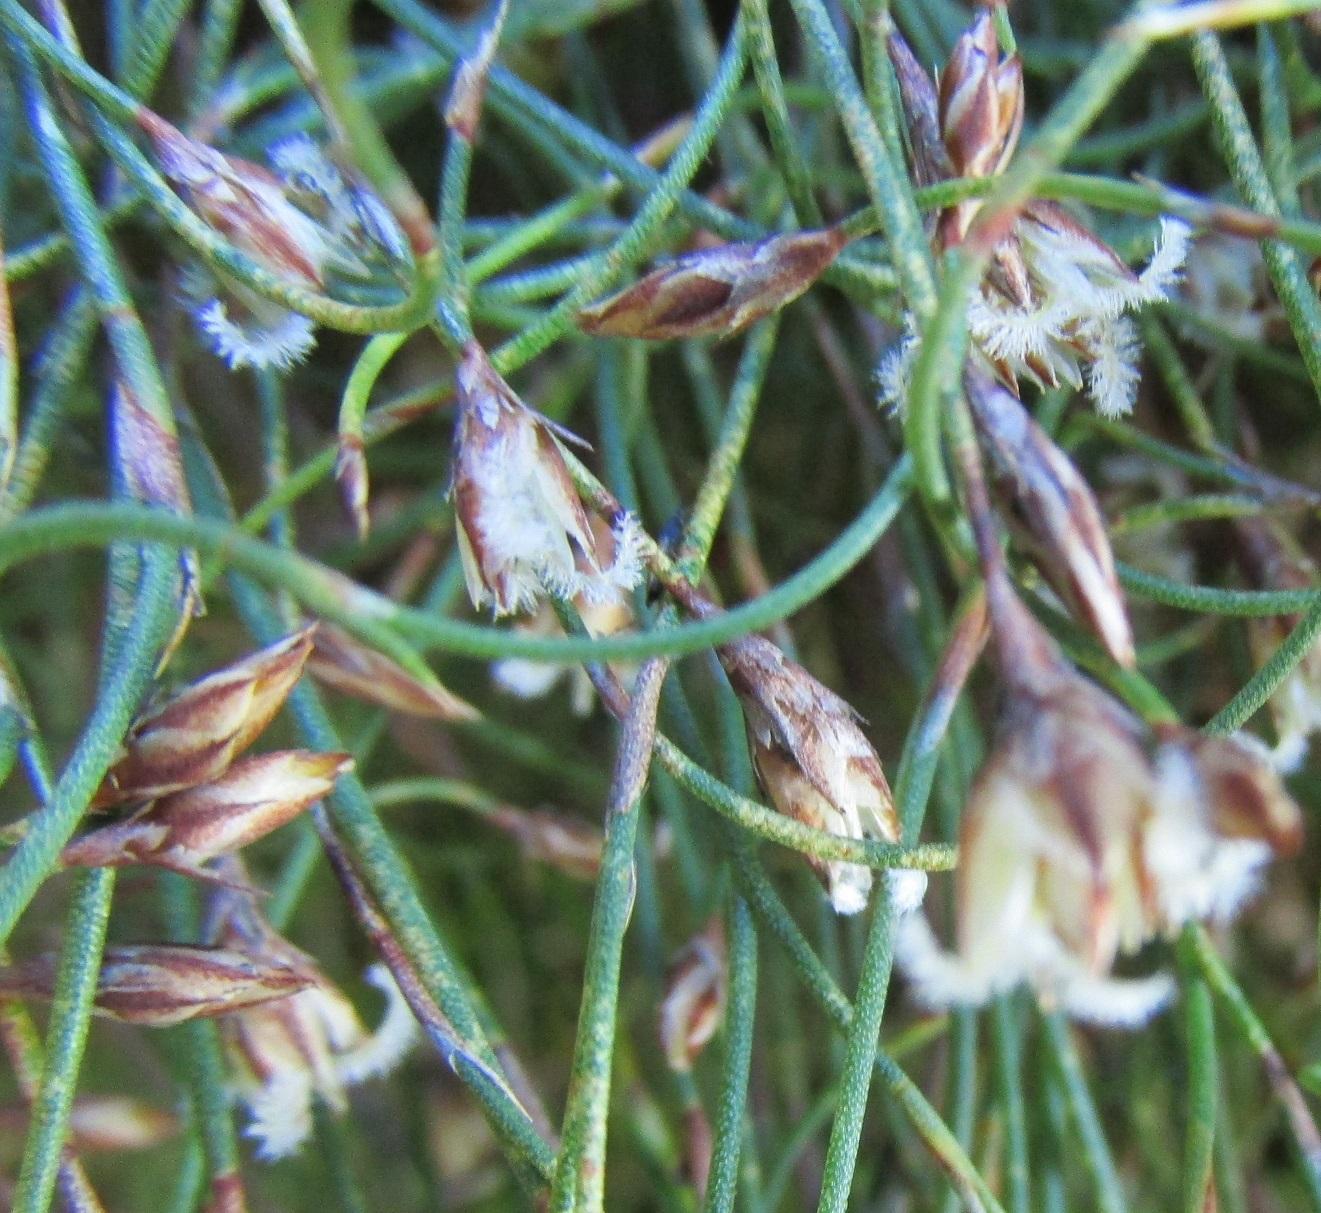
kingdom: Plantae
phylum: Tracheophyta
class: Liliopsida
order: Poales
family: Restionaceae
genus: Restio
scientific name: Restio perplexus
